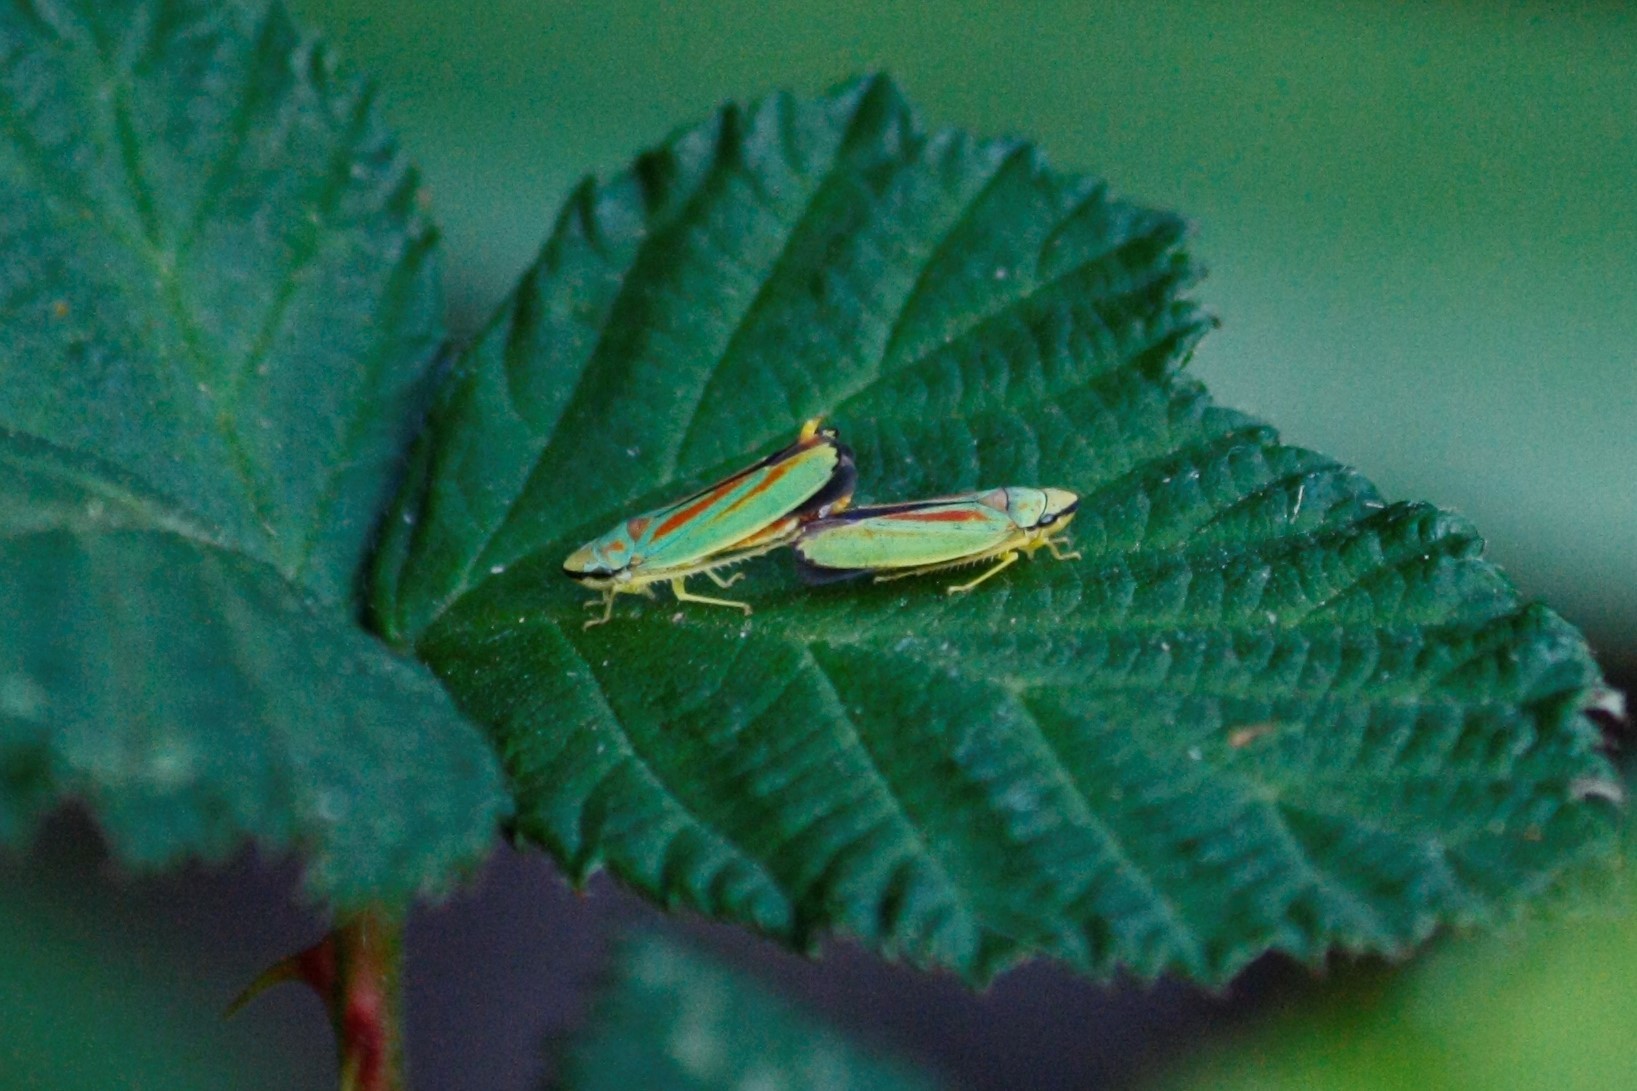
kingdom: Animalia
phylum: Arthropoda
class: Insecta
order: Hemiptera
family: Cicadellidae
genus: Graphocephala
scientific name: Graphocephala fennahi
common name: Rhododendron leafhopper
